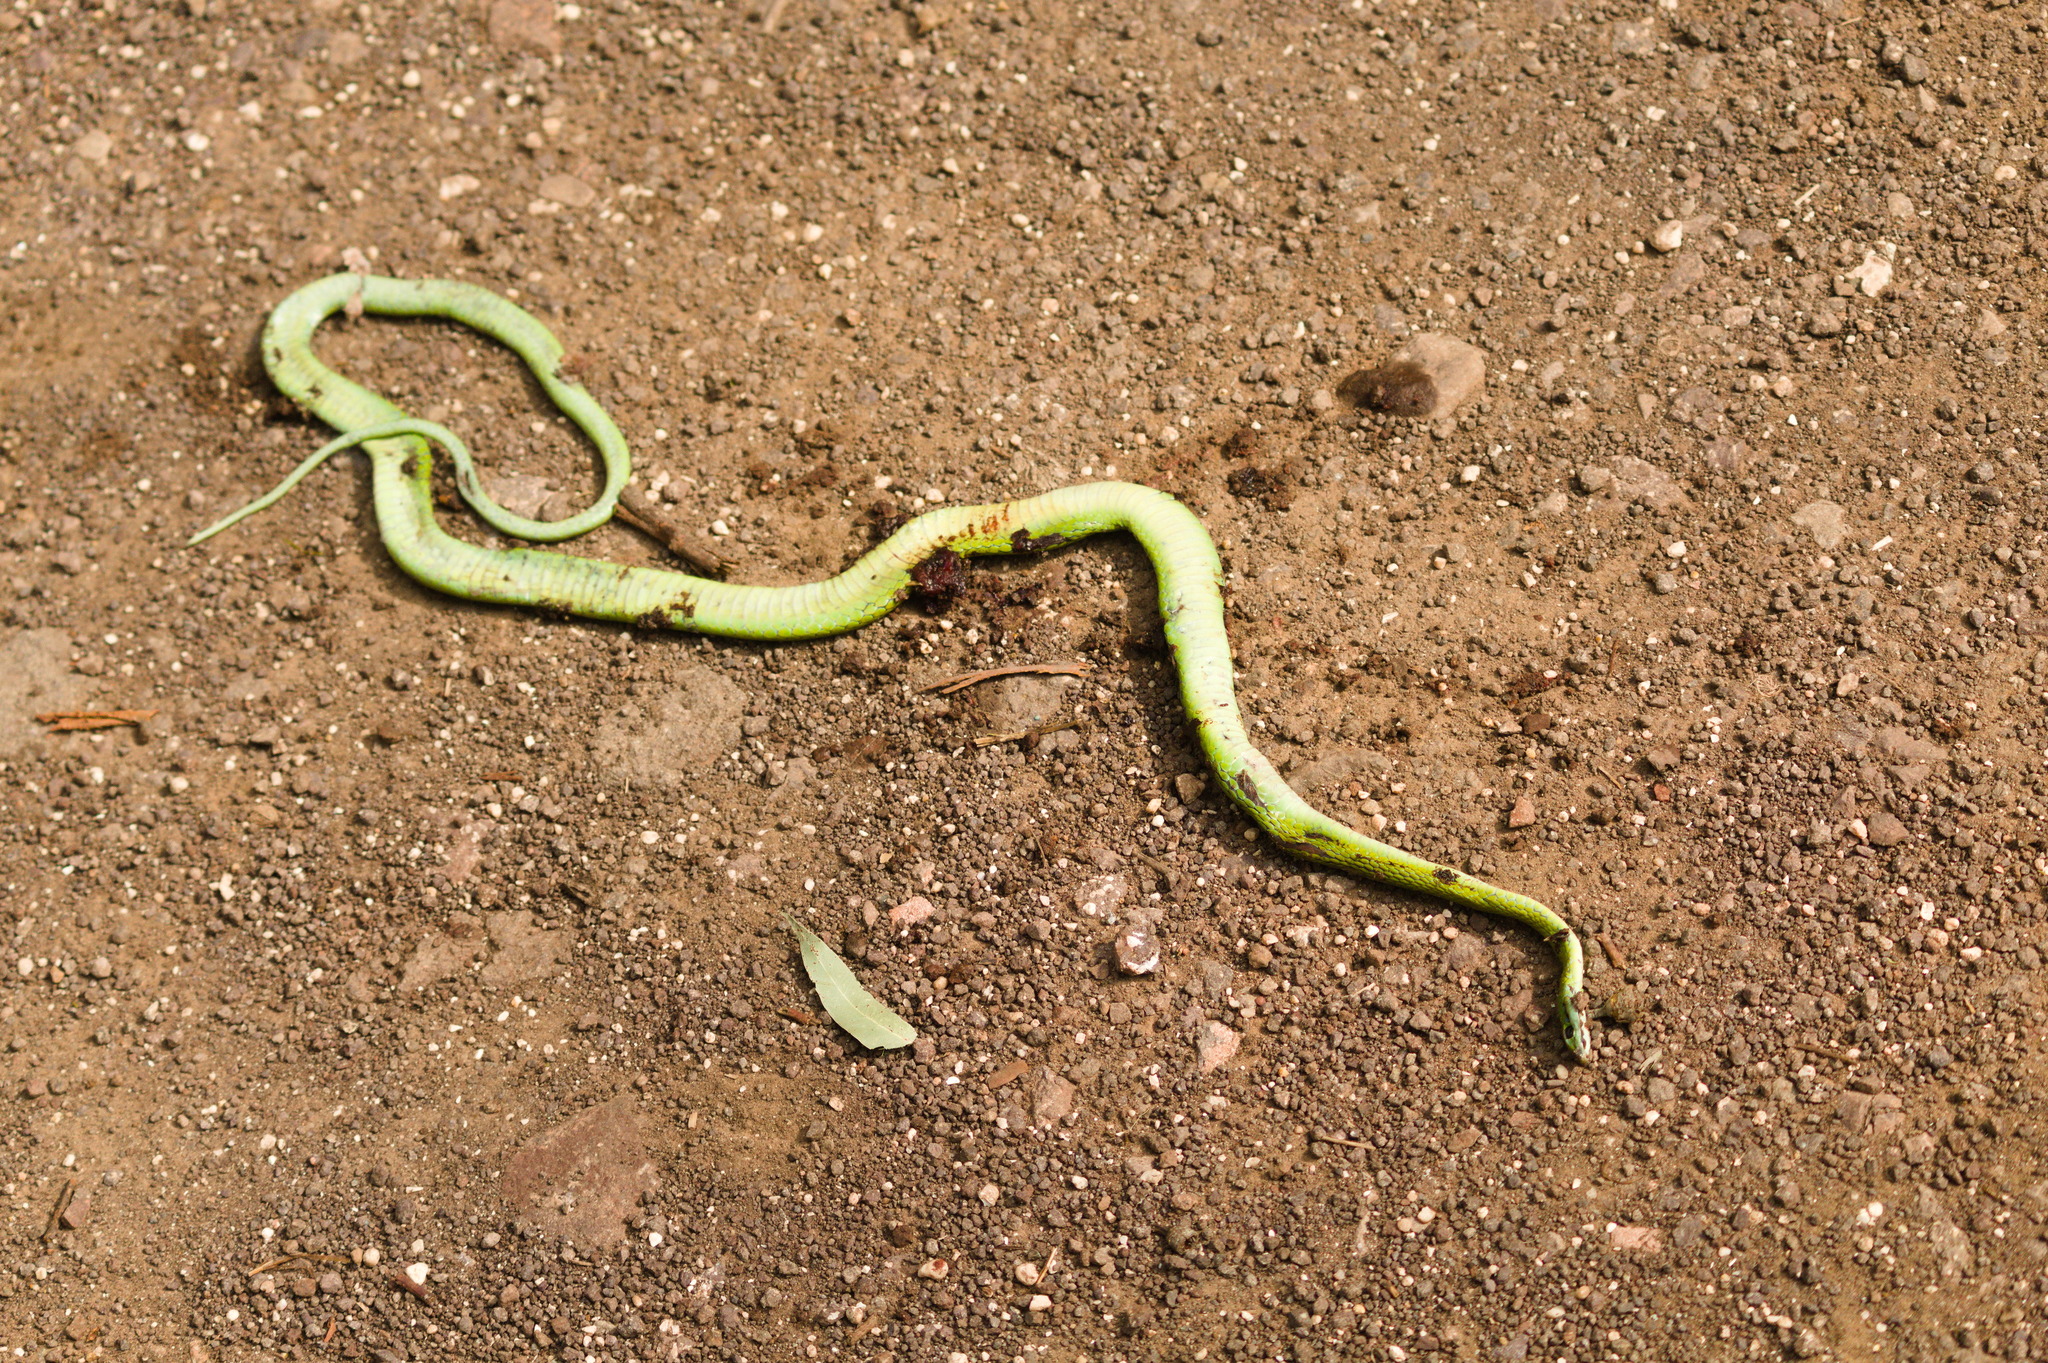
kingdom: Animalia
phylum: Chordata
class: Squamata
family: Colubridae
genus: Philodryas
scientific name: Philodryas olfersii
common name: Lichtenstein's green racer
